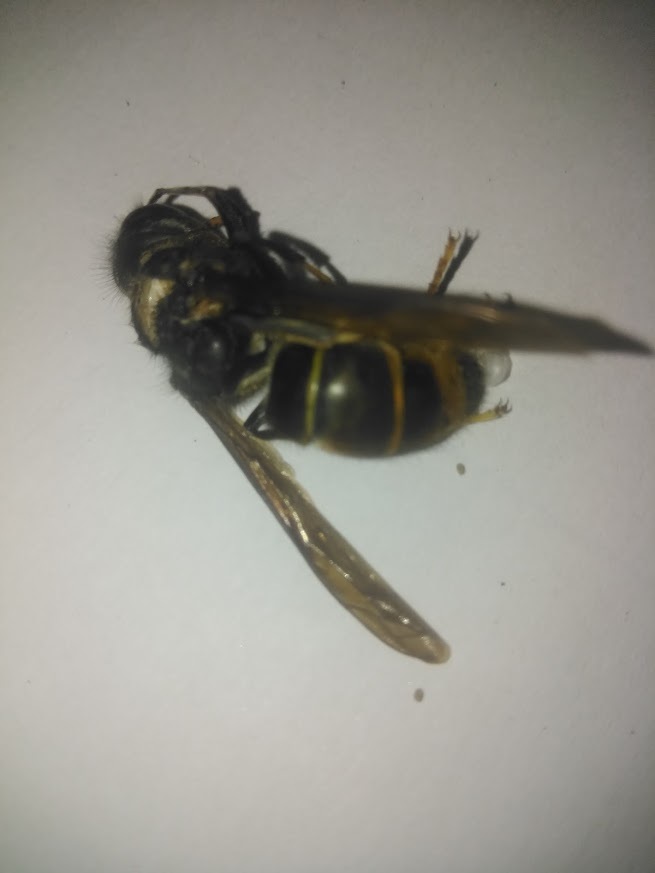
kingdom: Animalia
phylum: Arthropoda
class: Insecta
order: Hymenoptera
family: Vespidae
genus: Vespa
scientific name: Vespa velutina
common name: Asian hornet
